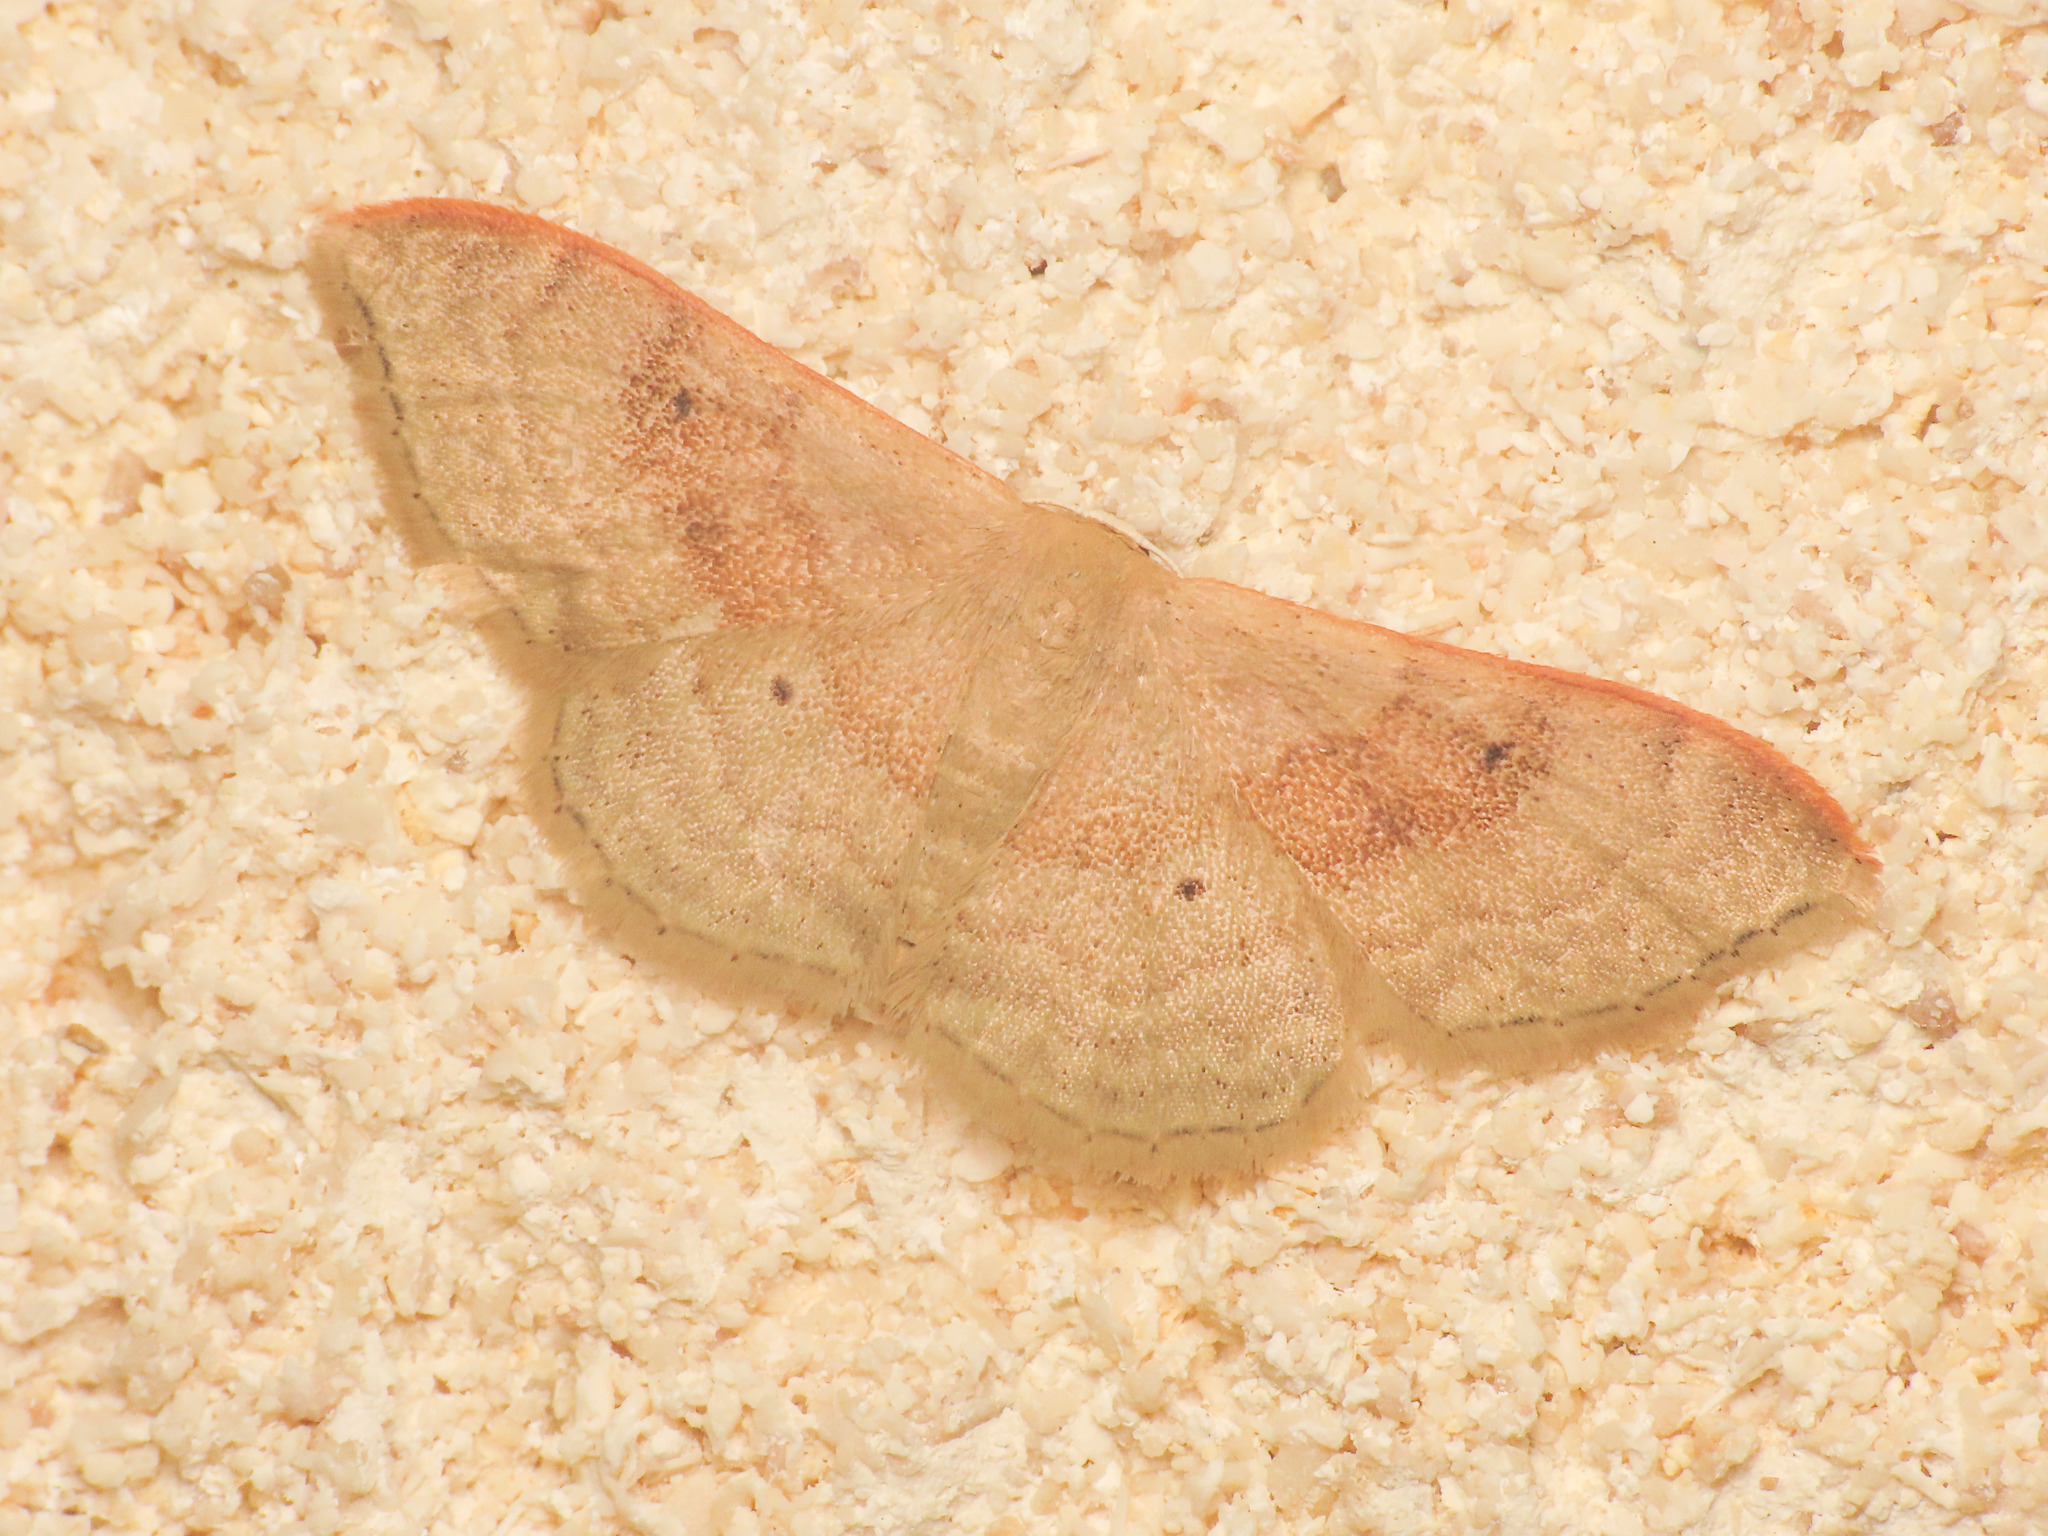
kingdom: Animalia
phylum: Arthropoda
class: Insecta
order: Lepidoptera
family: Geometridae
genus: Idaea
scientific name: Idaea degeneraria
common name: Portland ribbon wave
